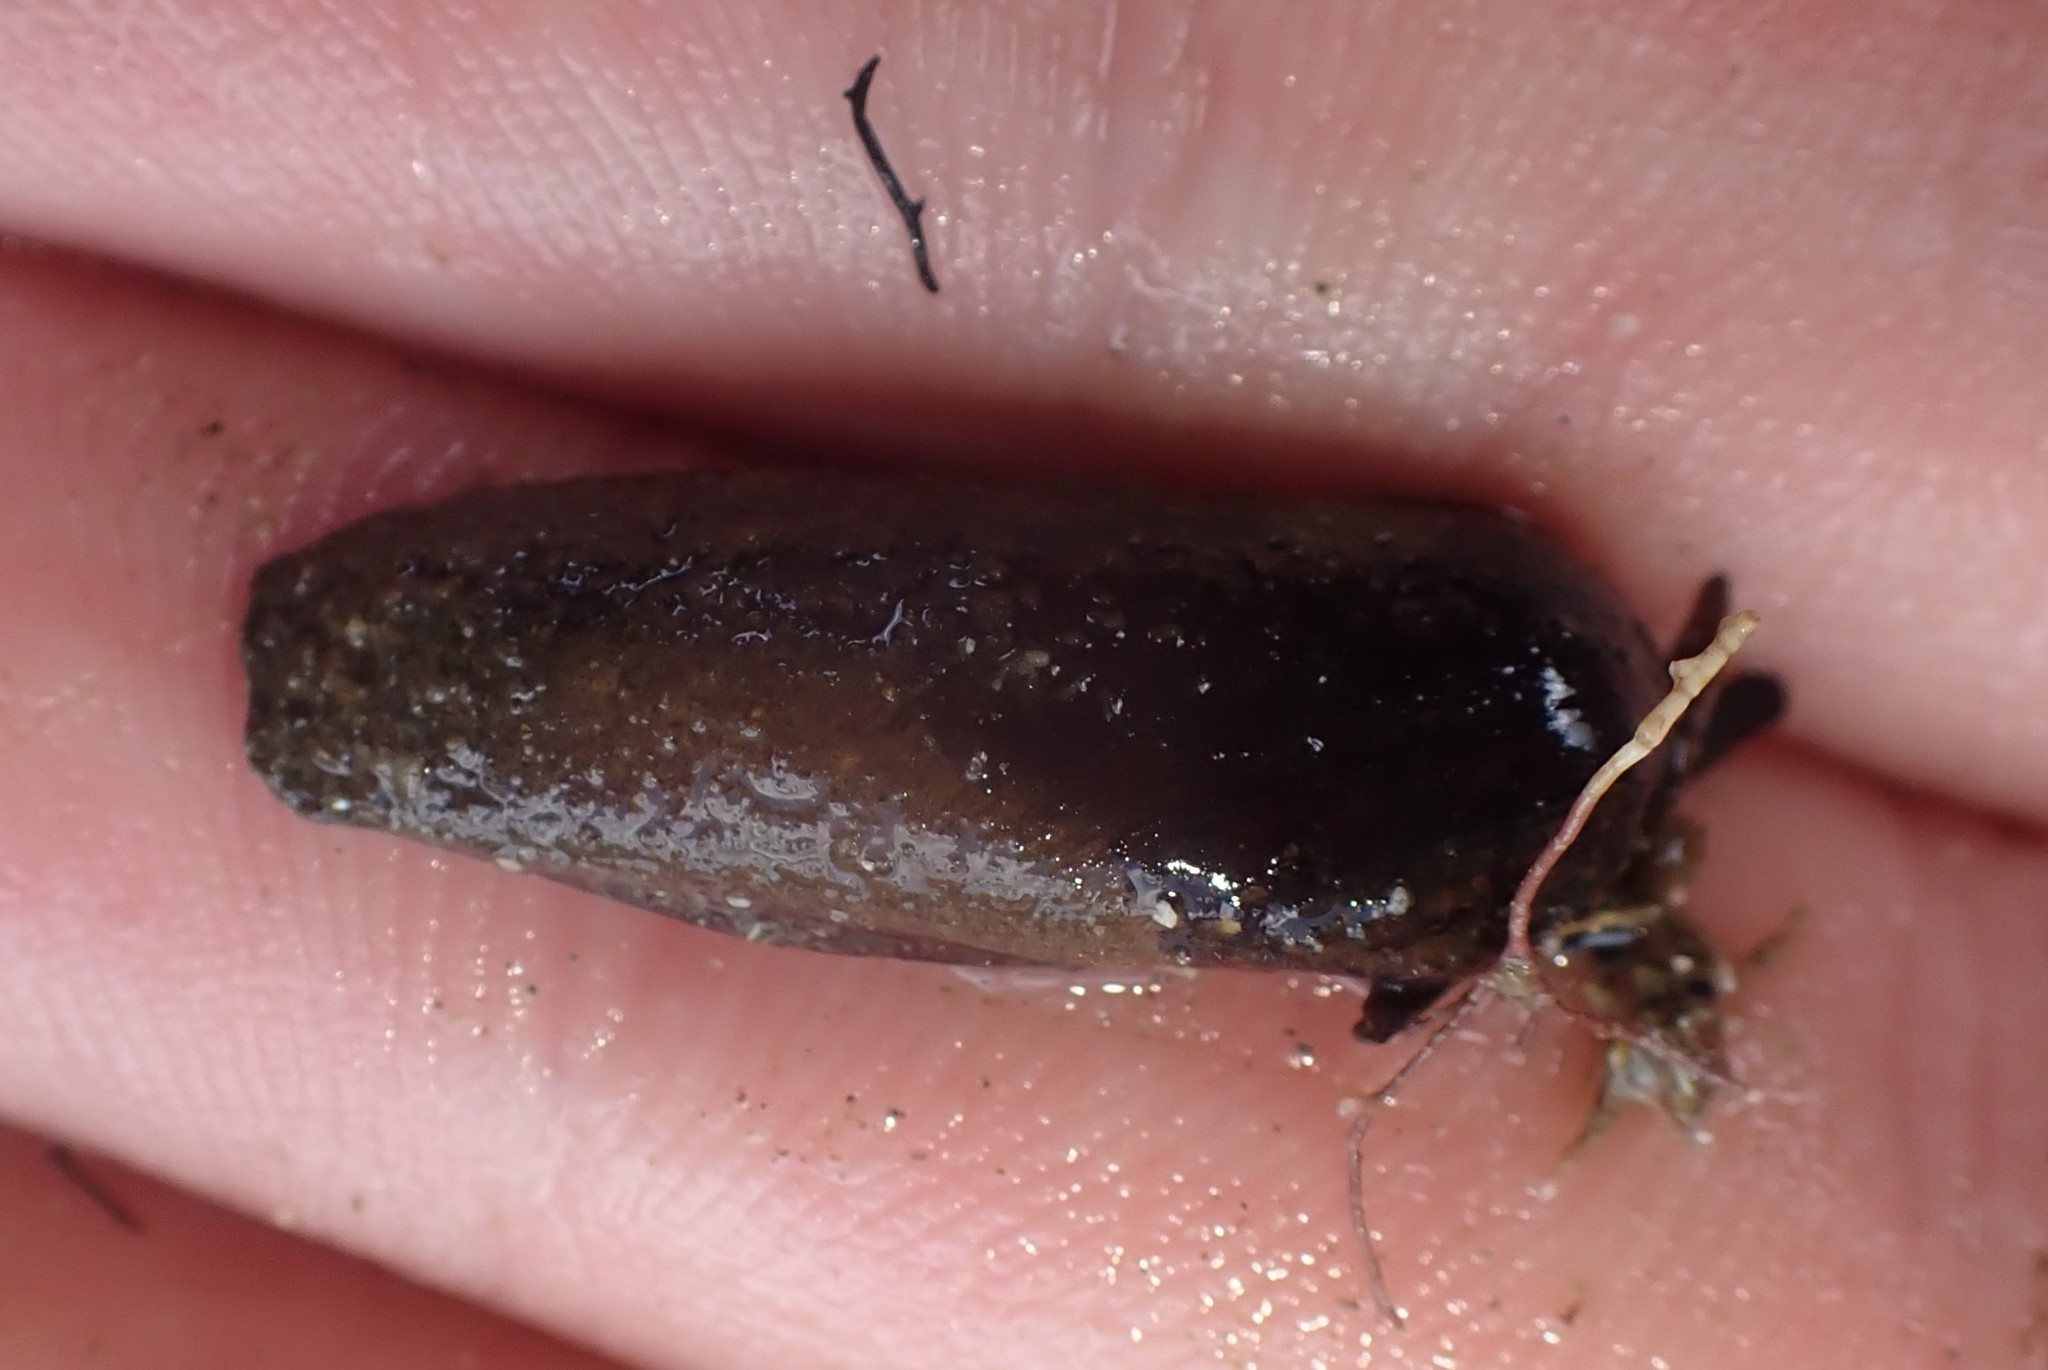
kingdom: Animalia
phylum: Mollusca
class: Bivalvia
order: Mytilida
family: Mytilidae
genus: Zelithophaga
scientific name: Zelithophaga truncata
